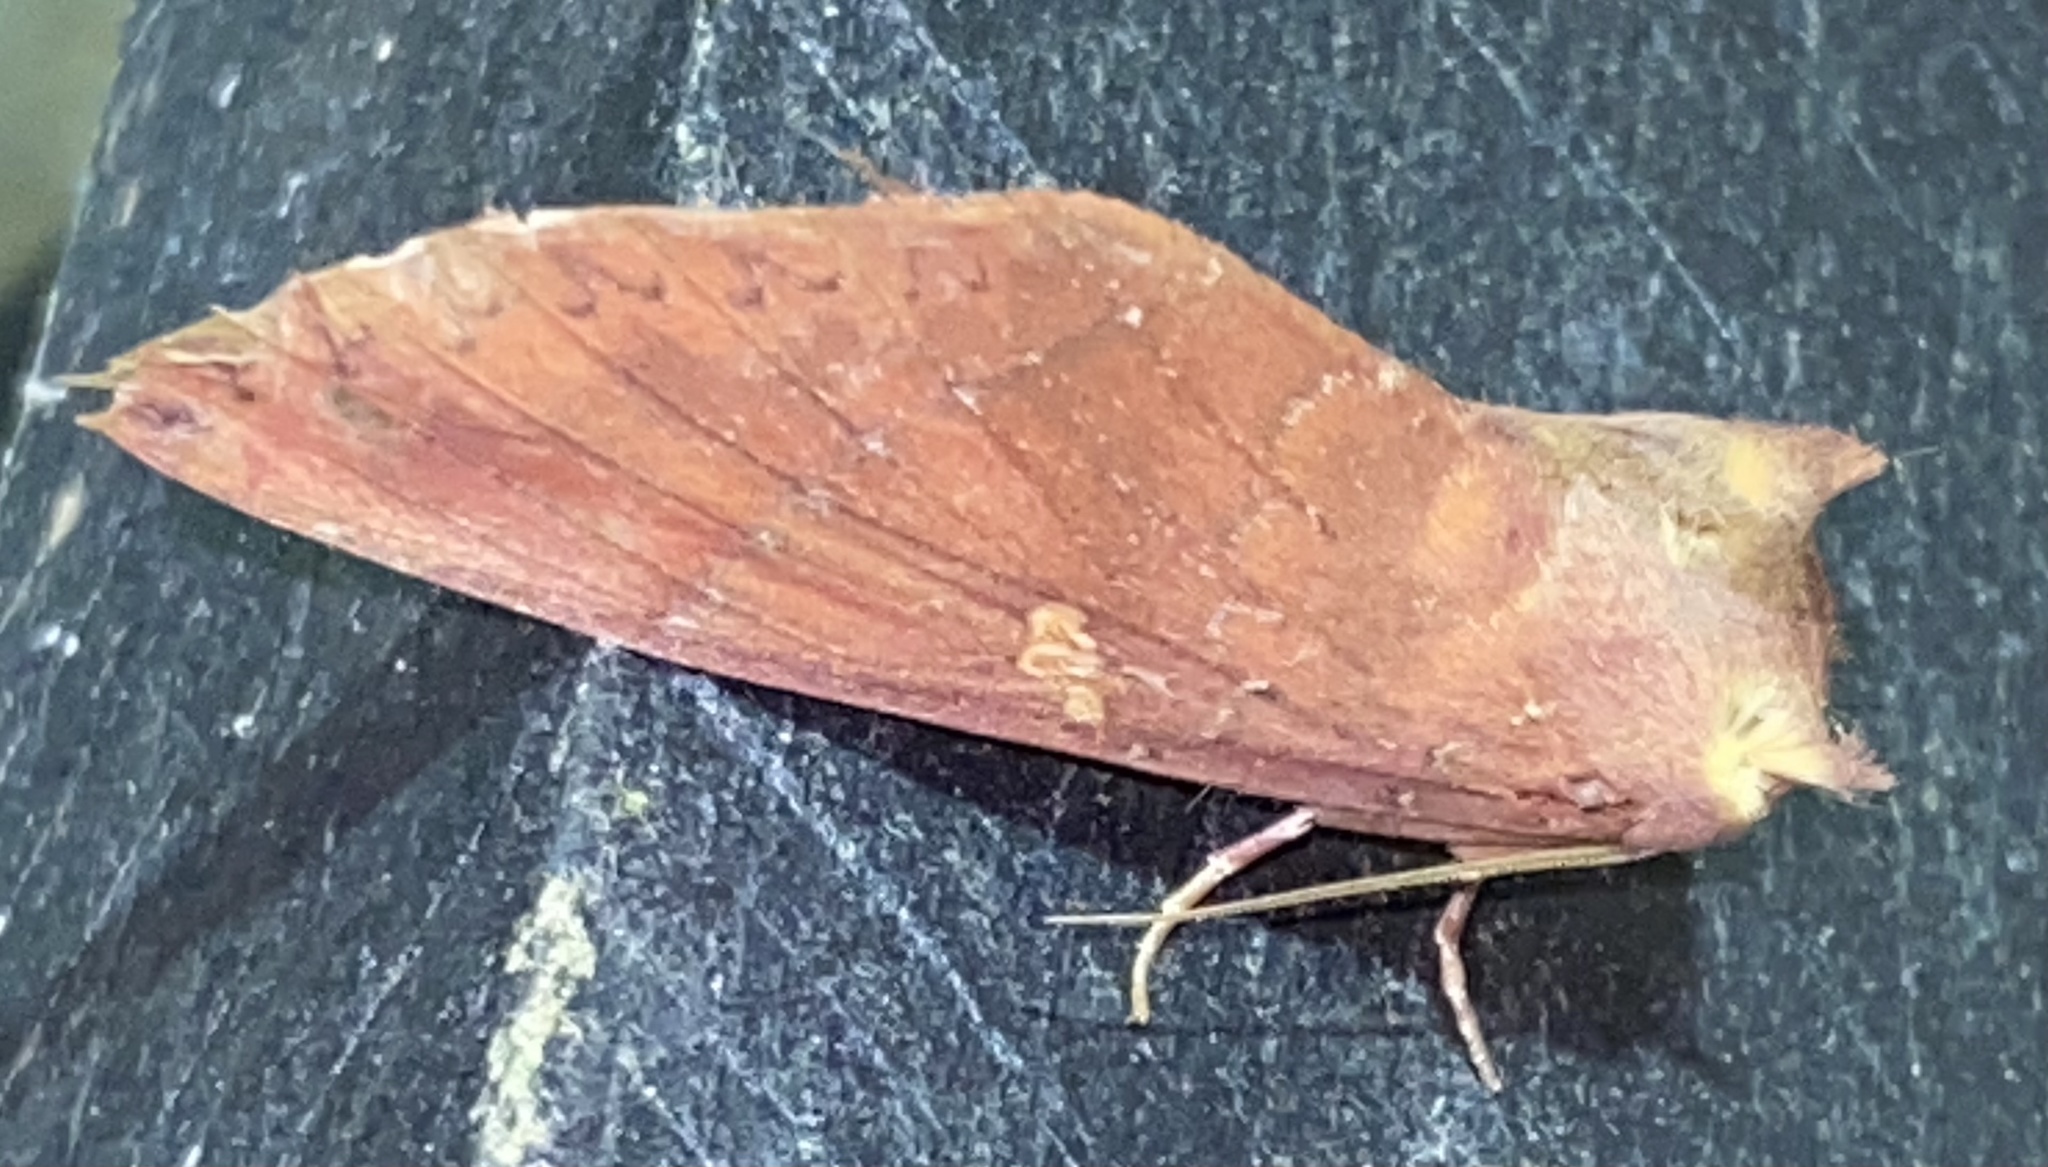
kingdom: Animalia
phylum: Arthropoda
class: Insecta
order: Lepidoptera
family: Notodontidae
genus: Hapigia
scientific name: Hapigia simplex
